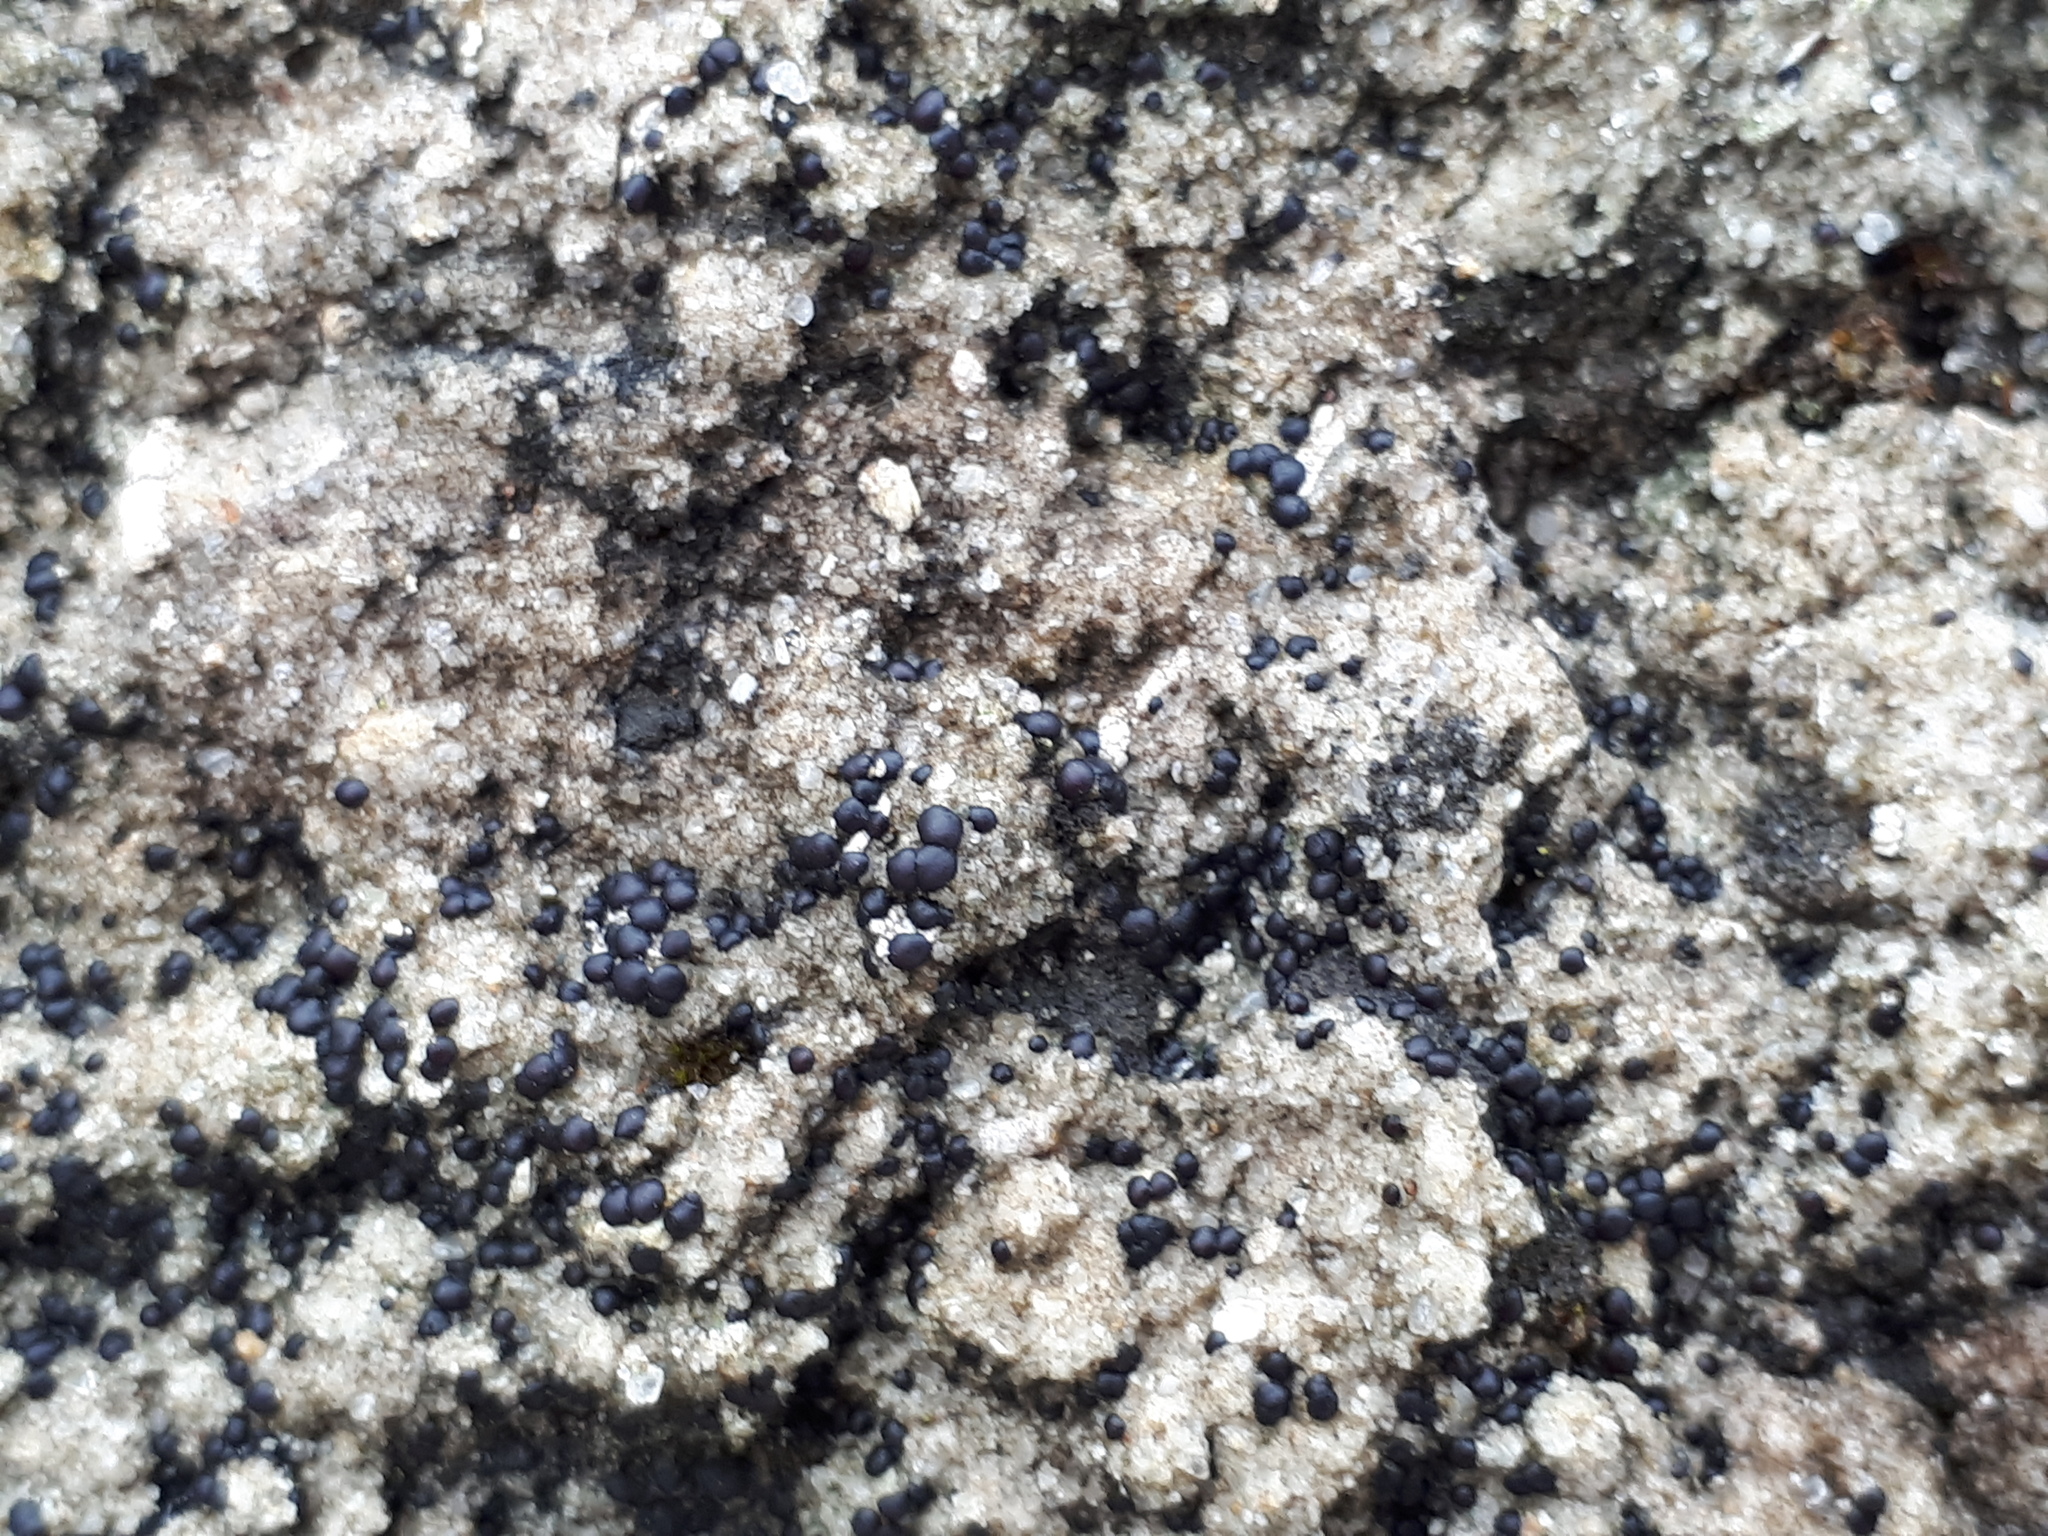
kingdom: Fungi
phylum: Ascomycota
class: Lecanoromycetes
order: Acarosporales
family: Acarosporaceae
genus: Sarcogyne
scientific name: Sarcogyne regularis
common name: Frosted grain-spored lichen
